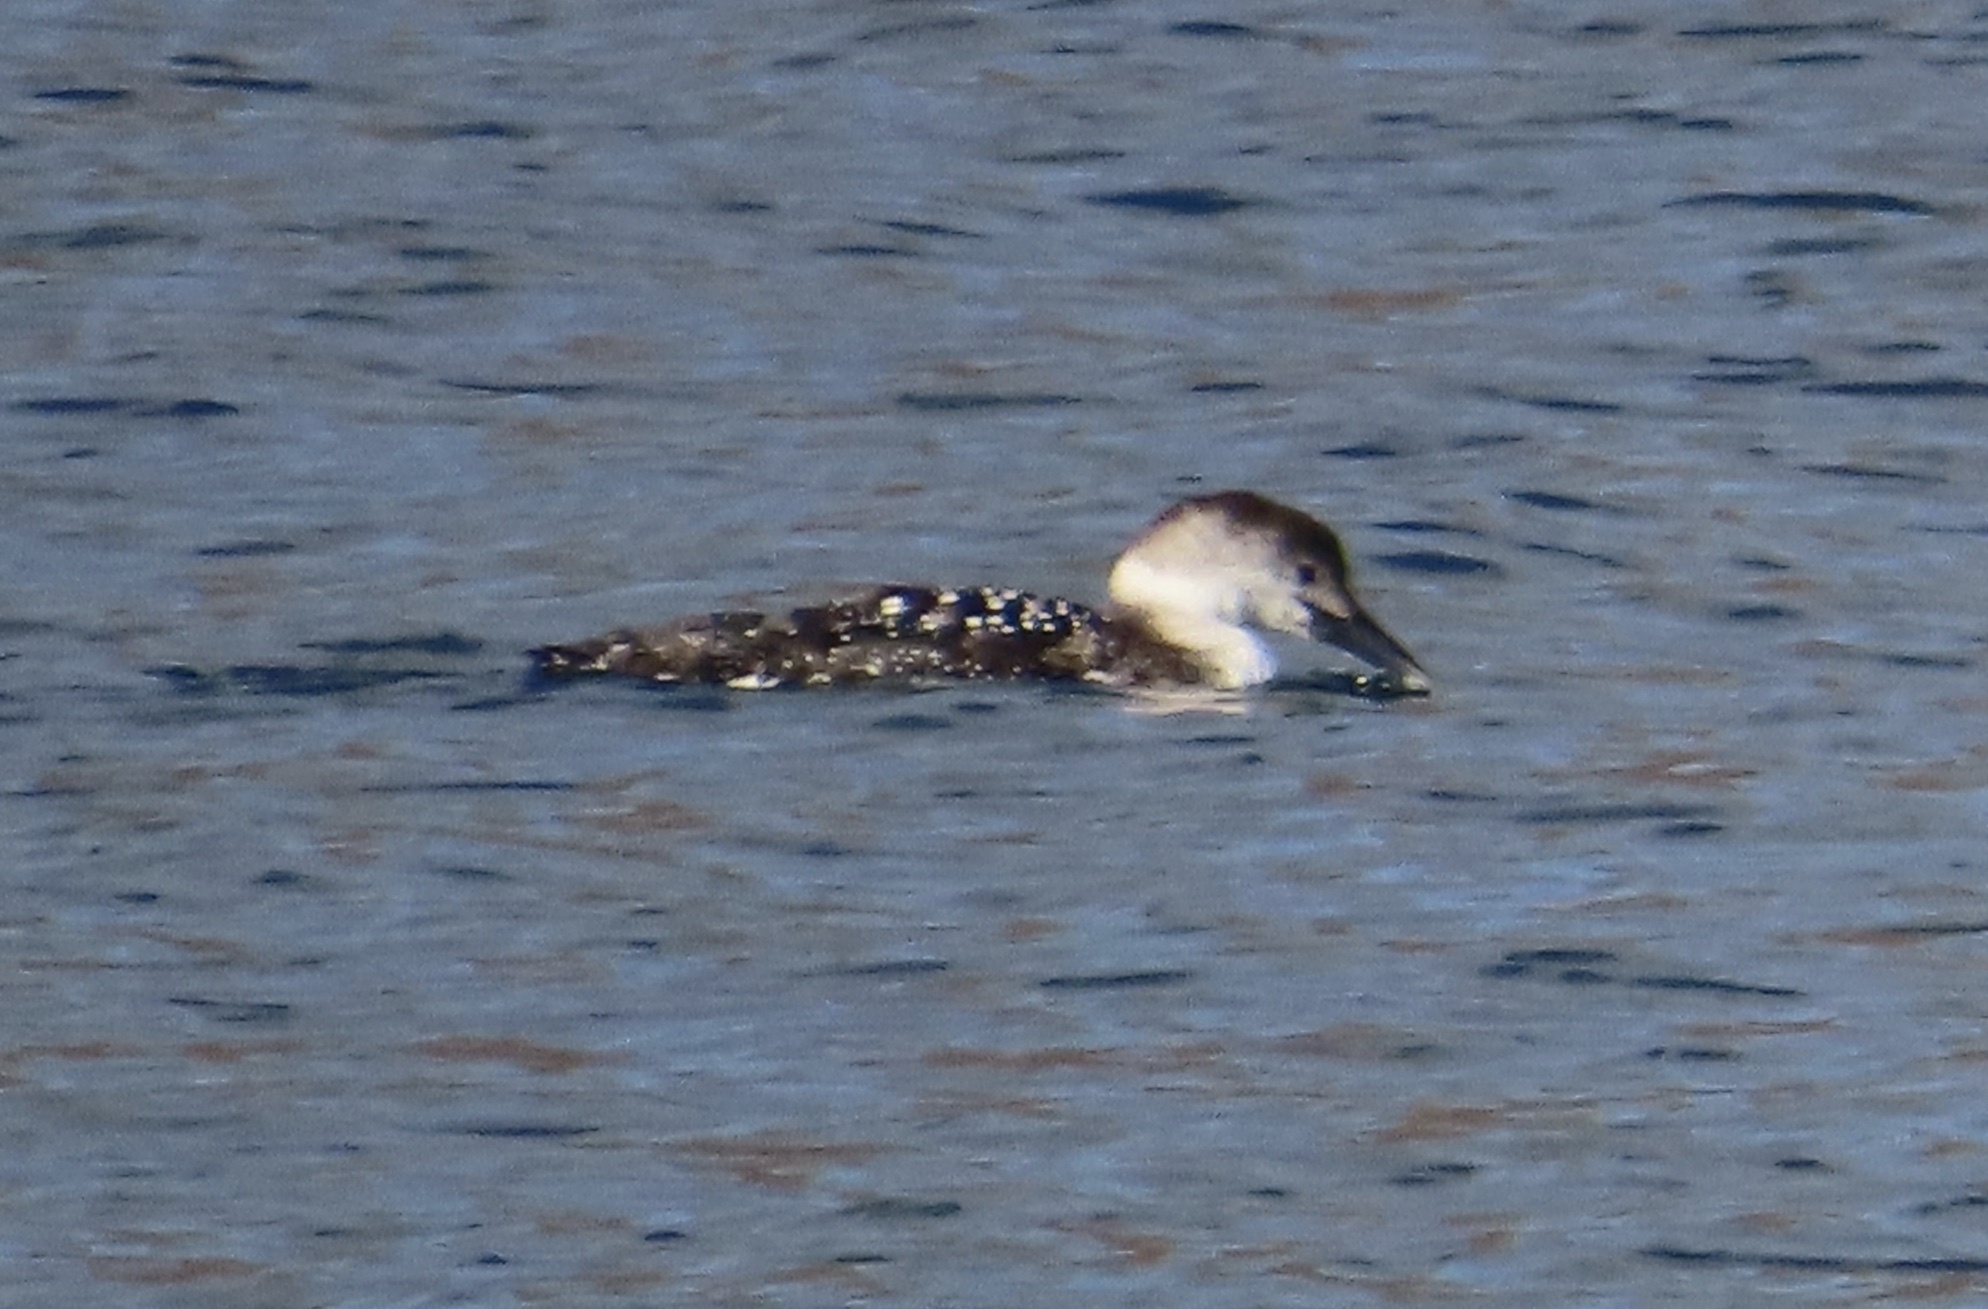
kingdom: Animalia
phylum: Chordata
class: Aves
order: Gaviiformes
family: Gaviidae
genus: Gavia
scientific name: Gavia immer
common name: Common loon
